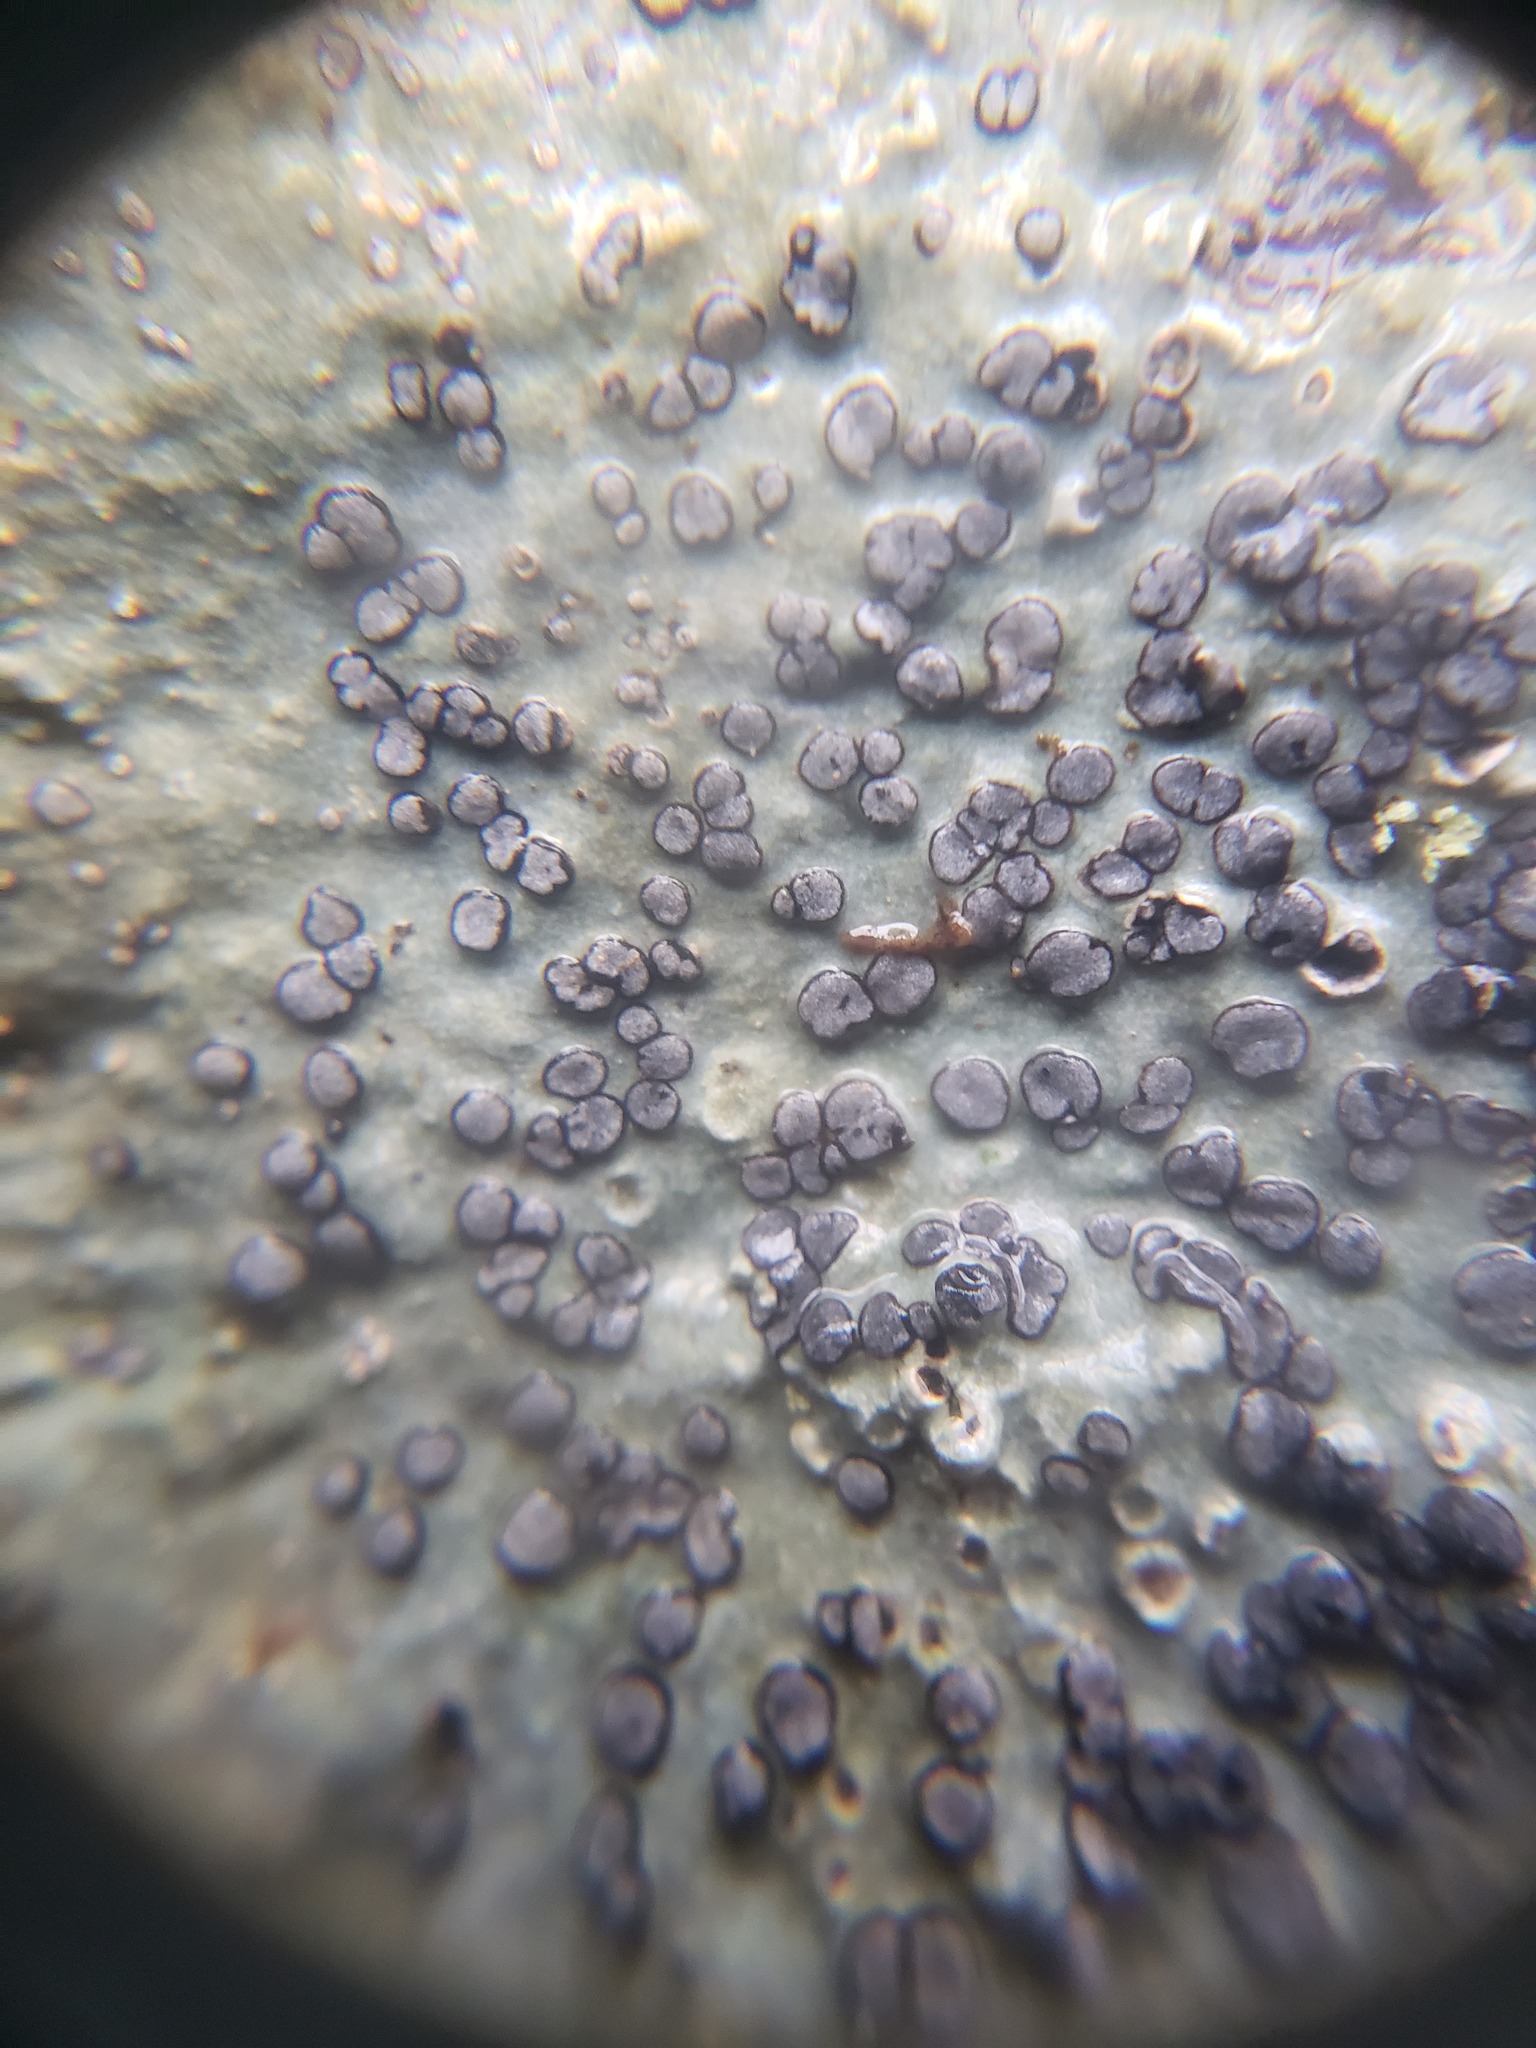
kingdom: Fungi
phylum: Ascomycota
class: Lecanoromycetes
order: Lecideales
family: Lecideaceae
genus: Porpidia
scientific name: Porpidia albocaerulescens
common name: Smokey-eyed boulder lichen
